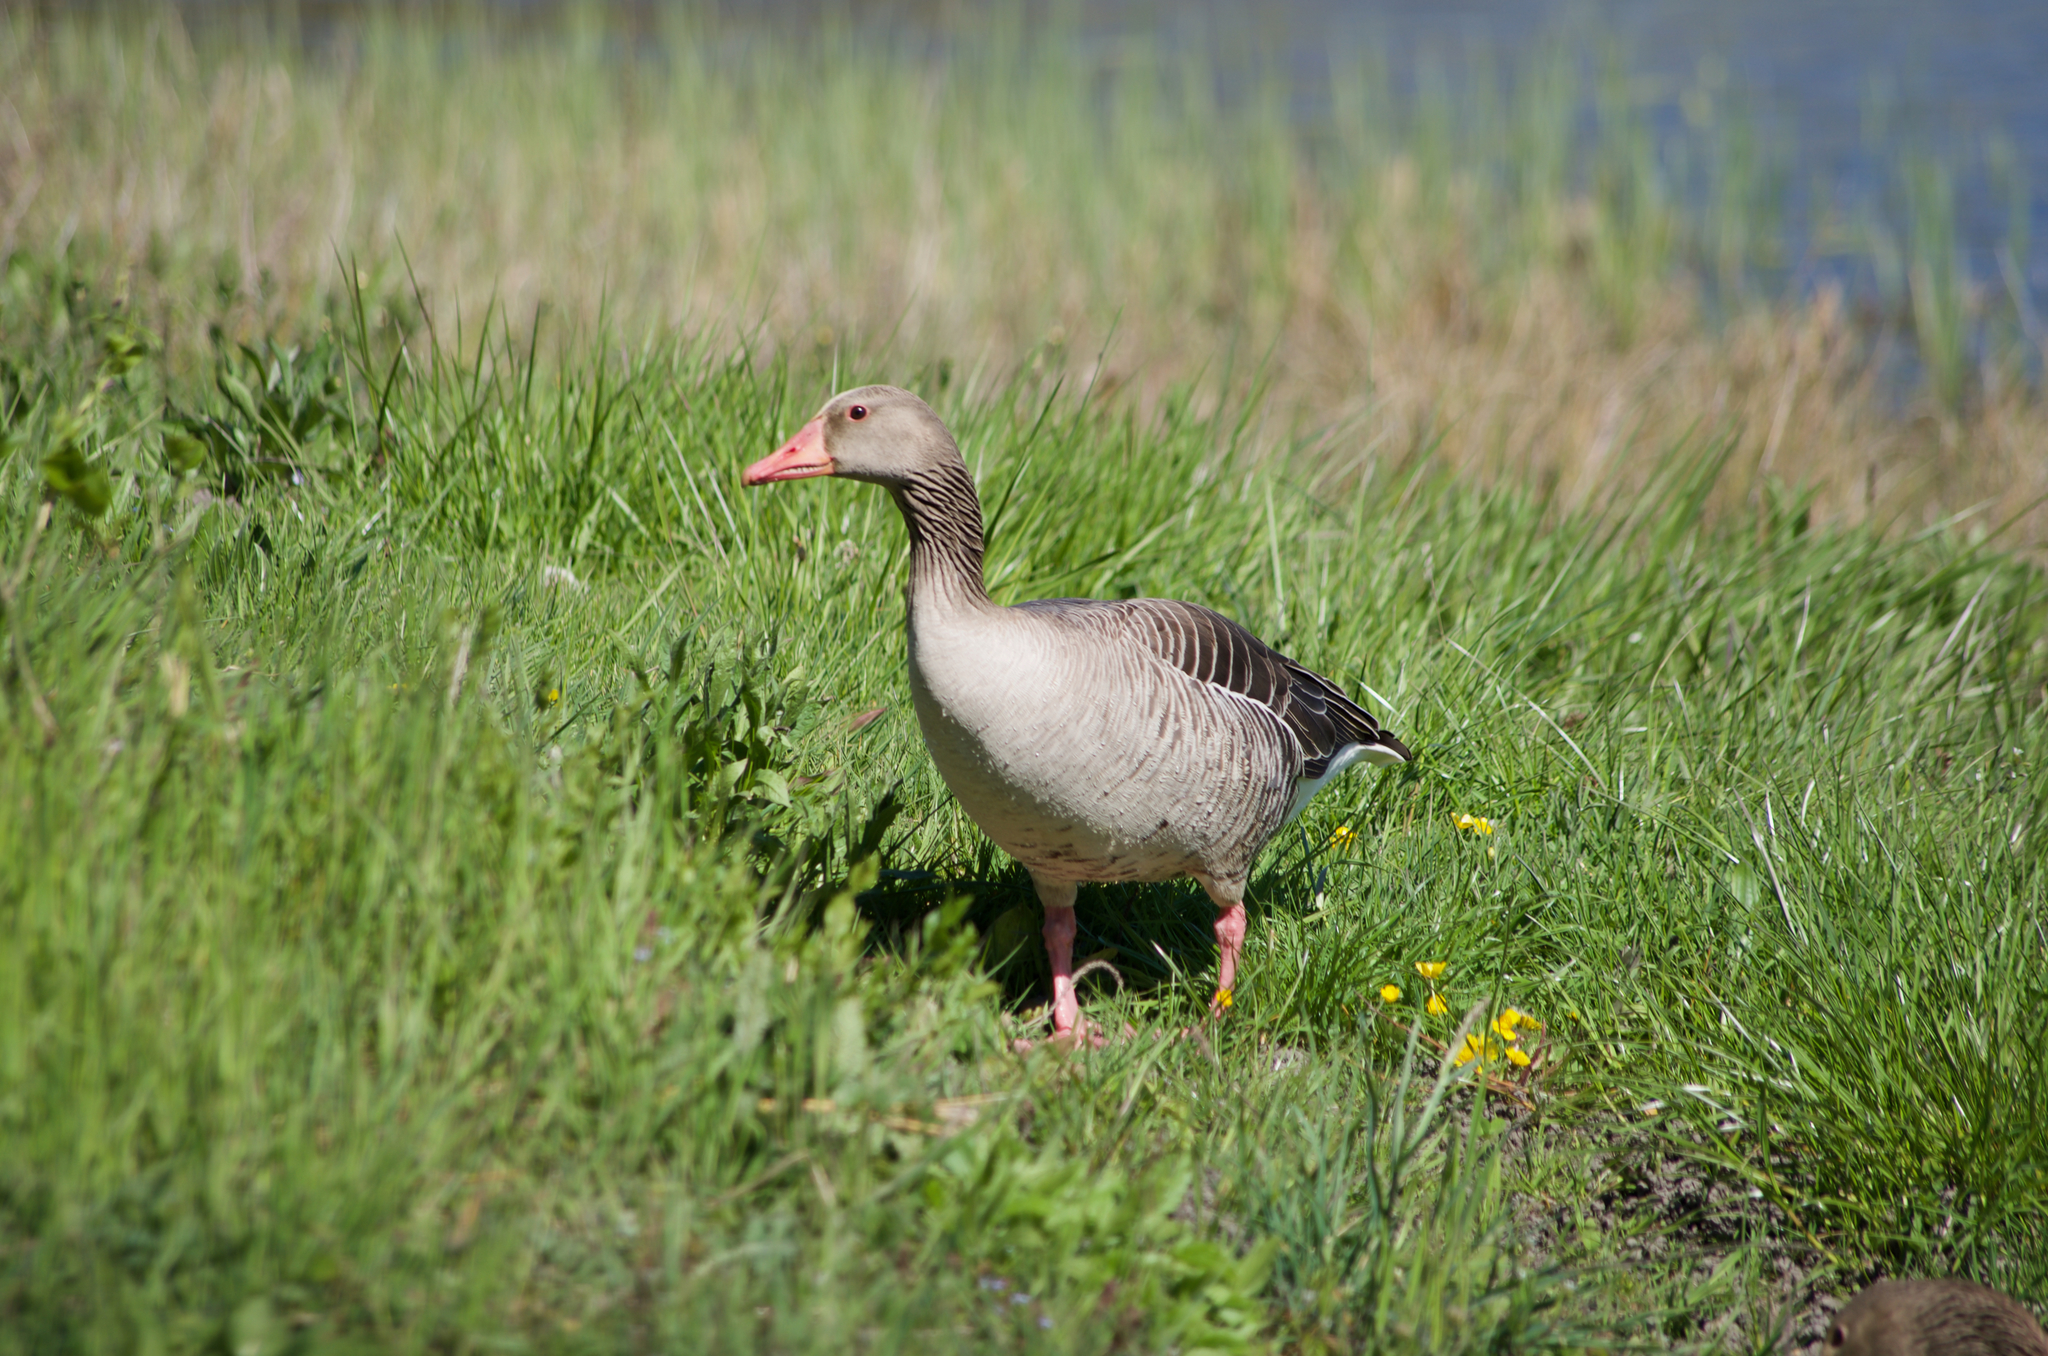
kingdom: Animalia
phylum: Chordata
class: Aves
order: Anseriformes
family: Anatidae
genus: Anser
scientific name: Anser anser
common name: Greylag goose
